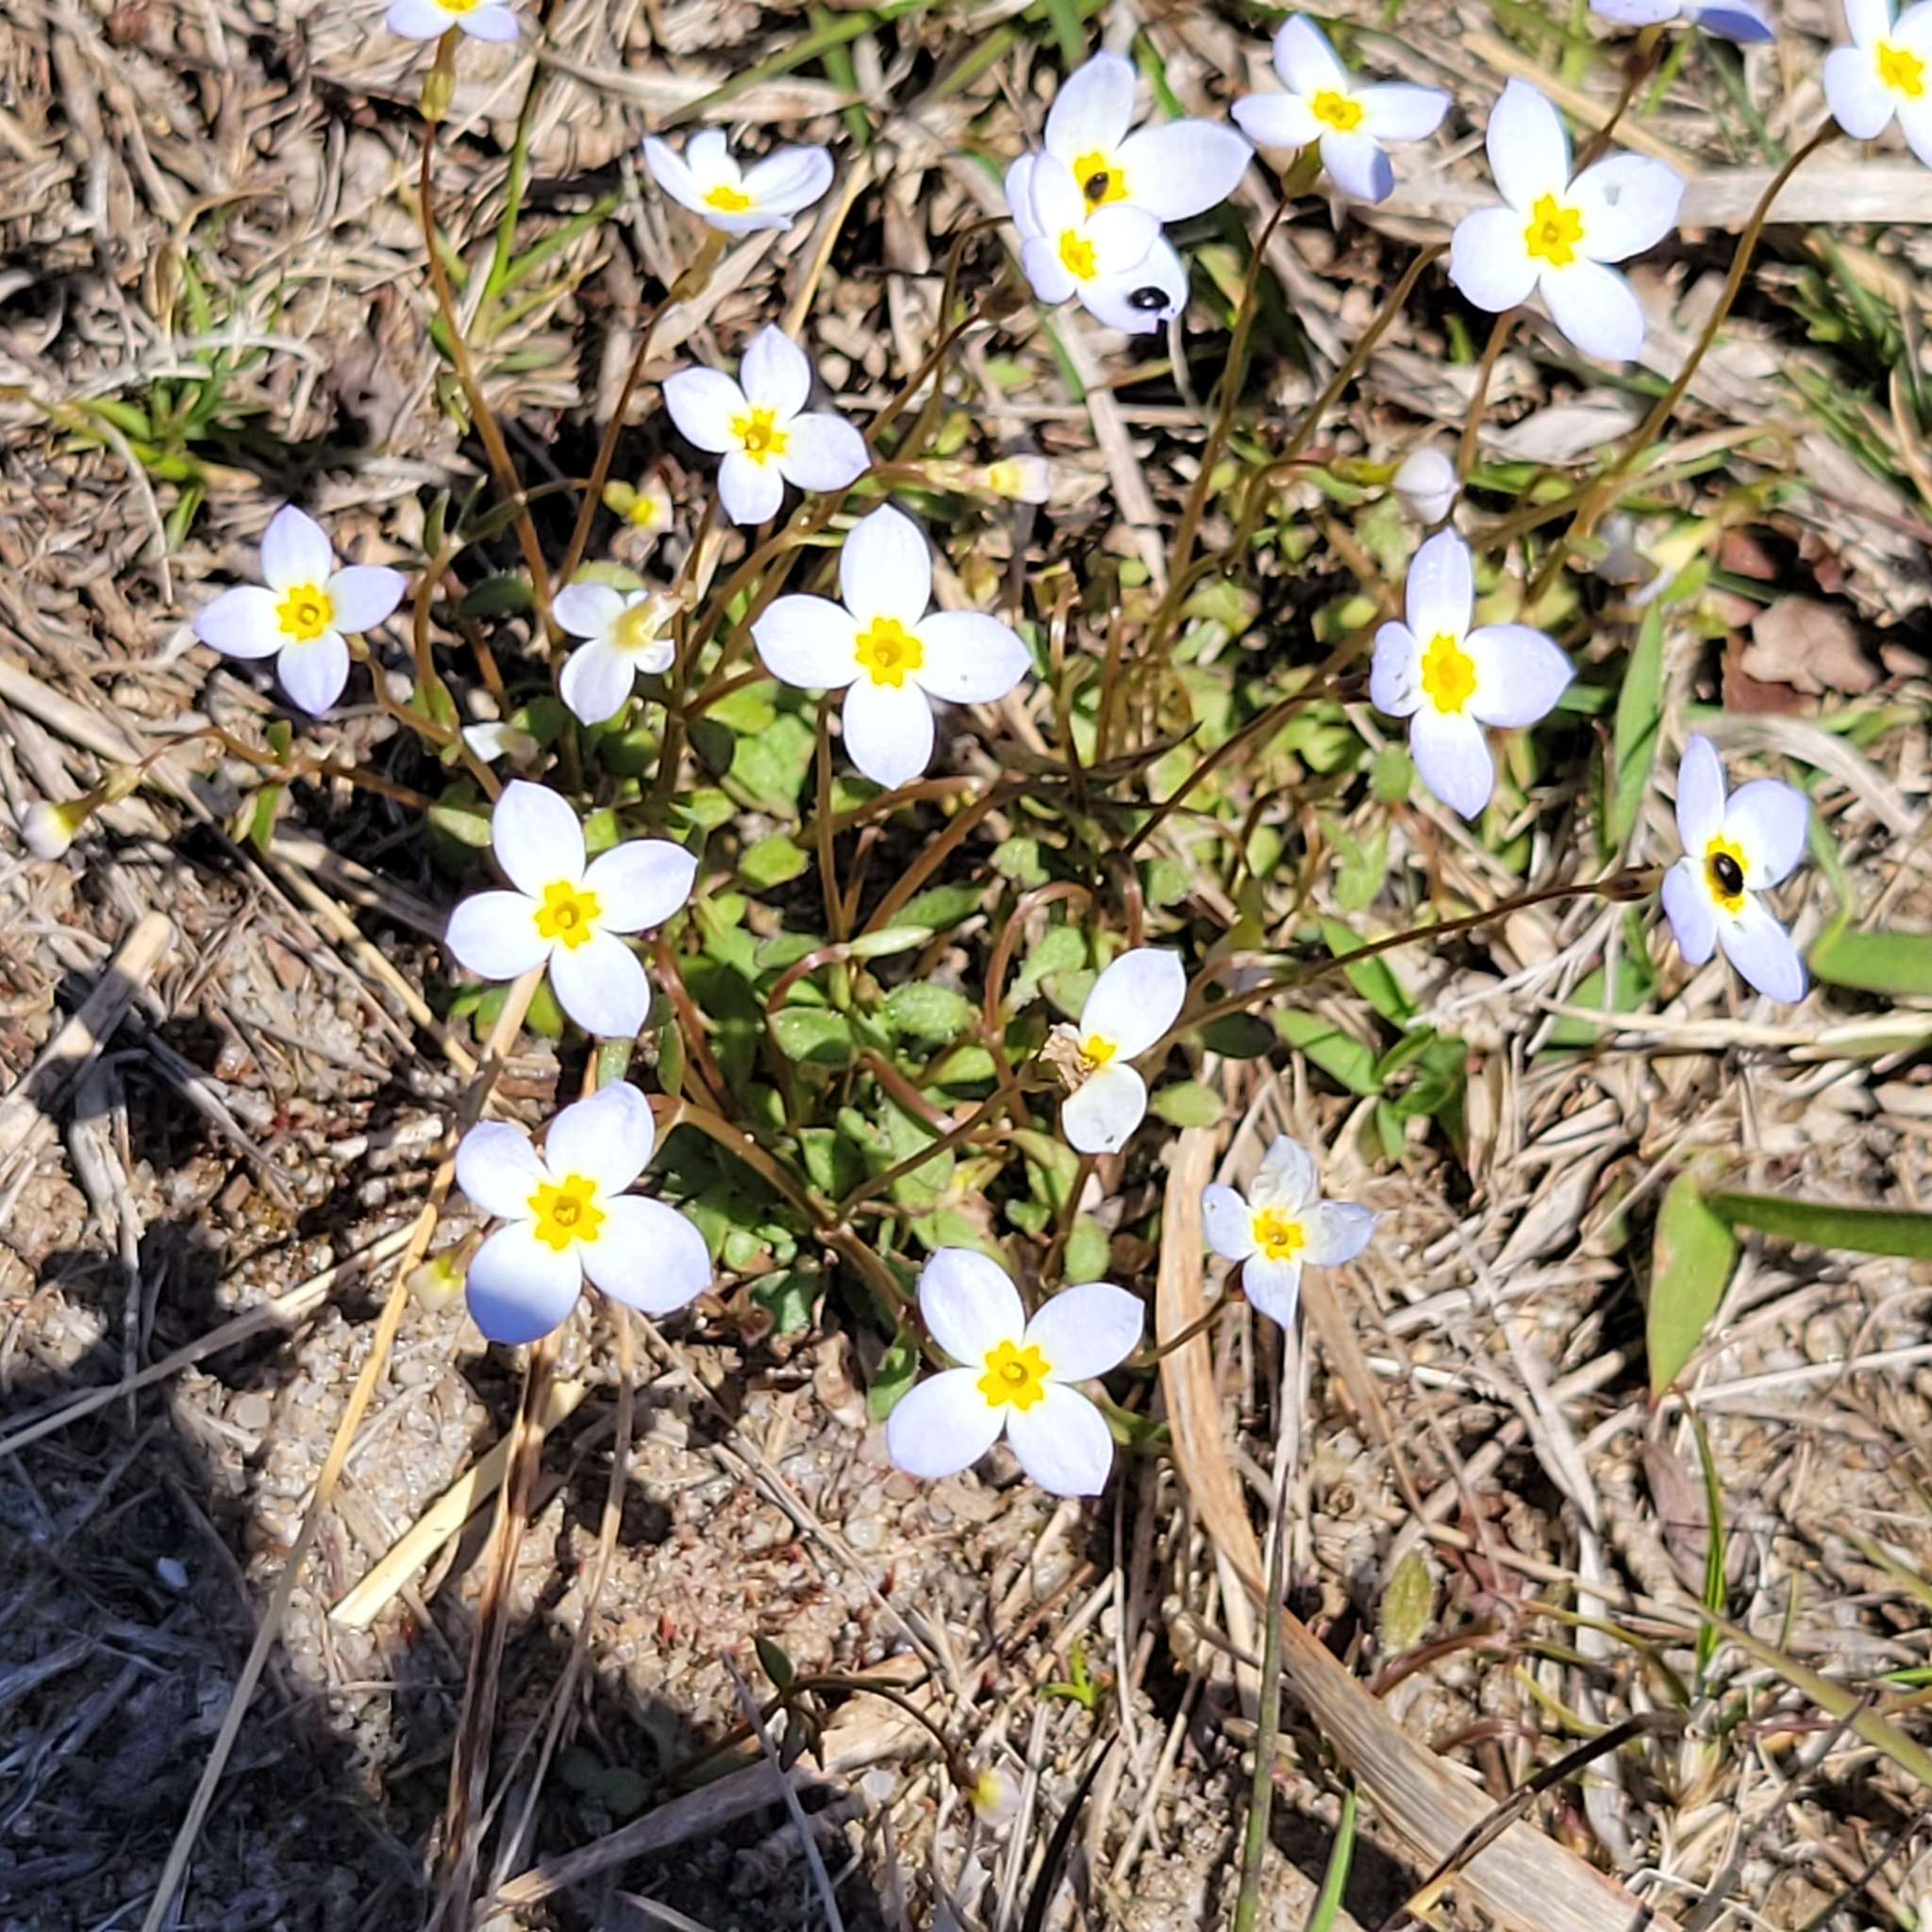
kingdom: Plantae
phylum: Tracheophyta
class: Magnoliopsida
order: Gentianales
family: Rubiaceae
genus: Houstonia
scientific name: Houstonia caerulea
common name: Bluets
